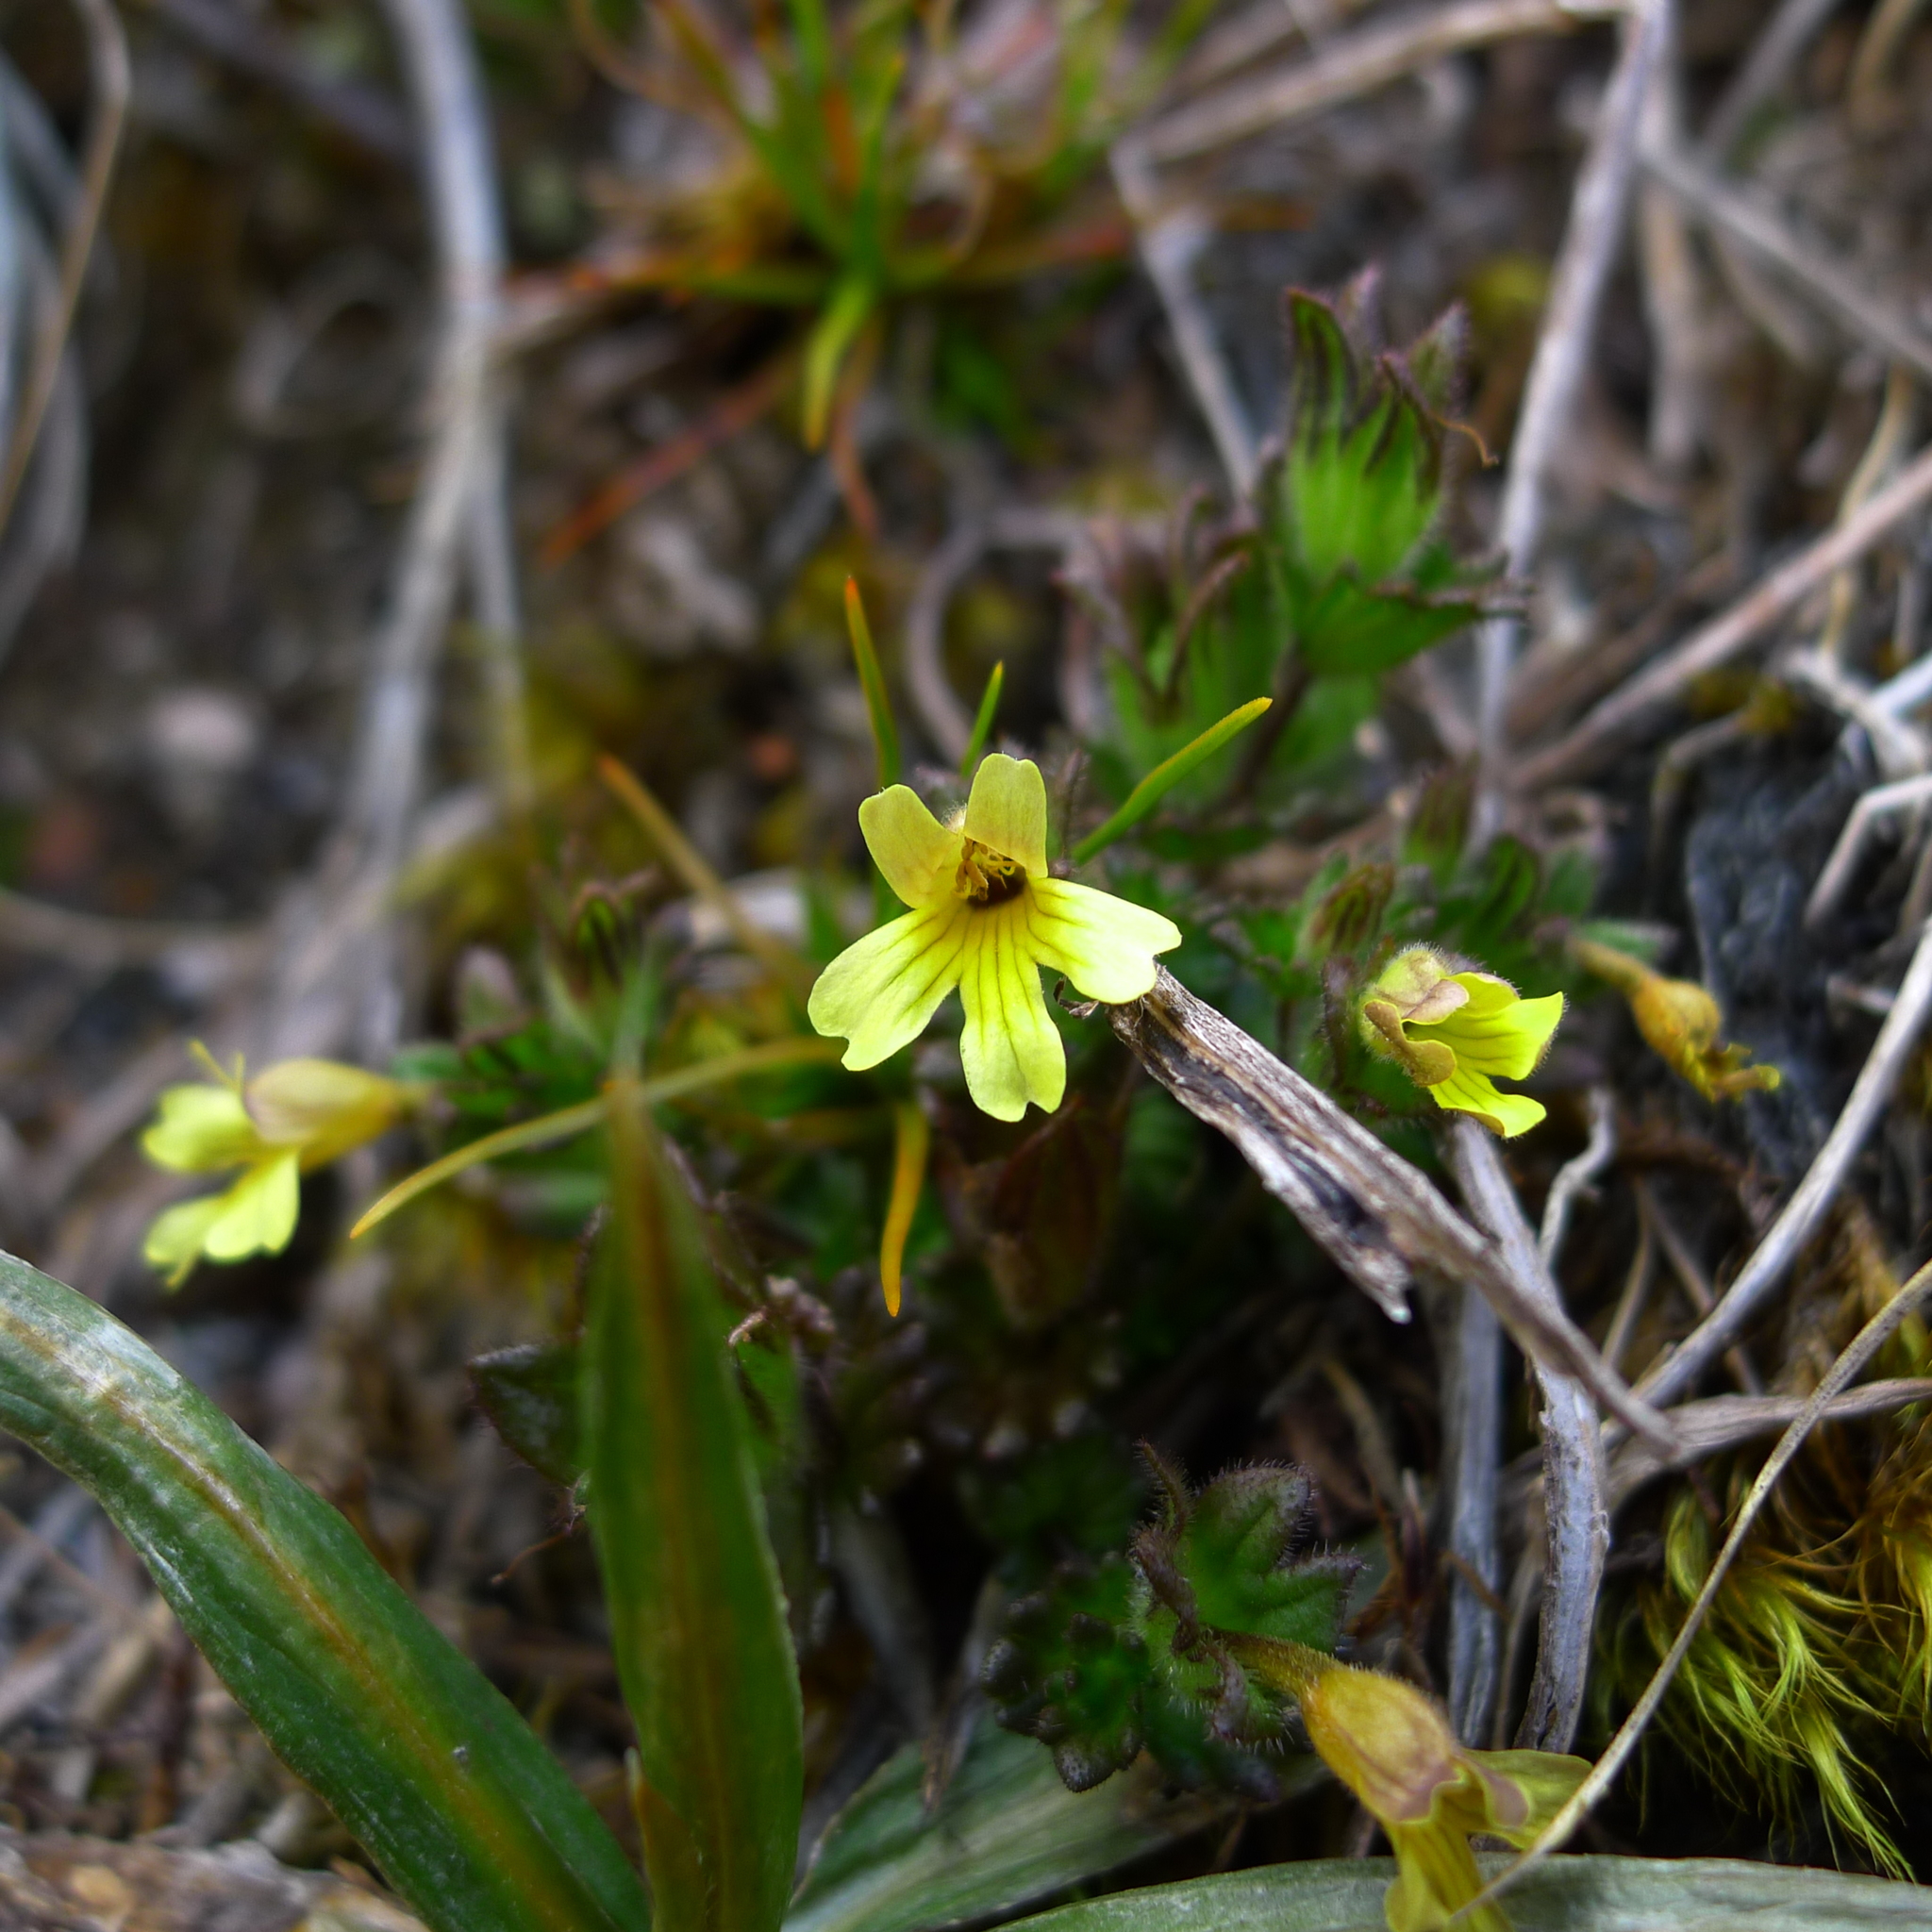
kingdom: Plantae
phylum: Tracheophyta
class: Magnoliopsida
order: Lamiales
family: Orobanchaceae
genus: Euphrasia
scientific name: Euphrasia cockayneana
